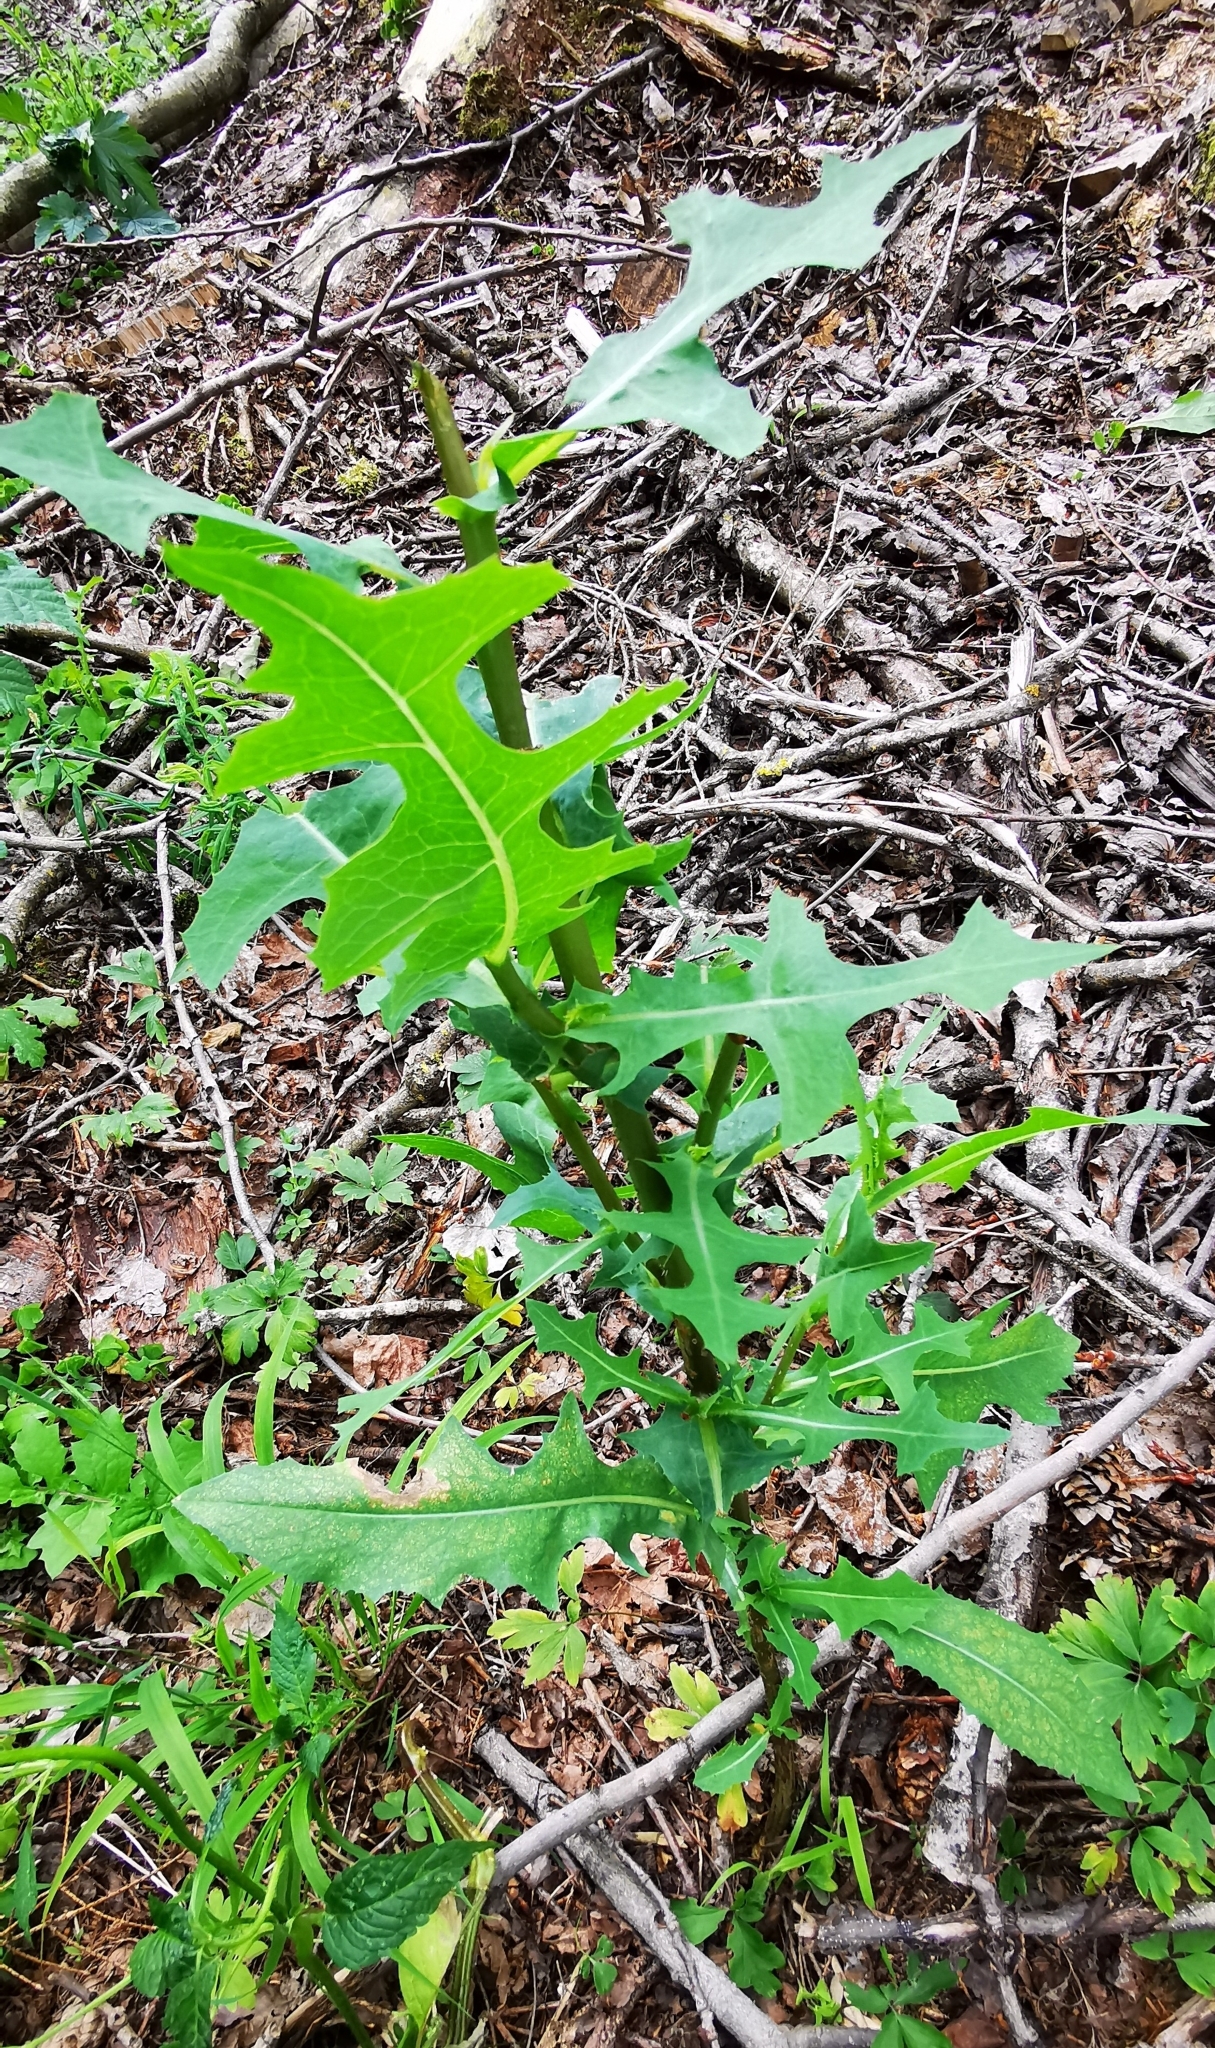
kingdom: Plantae
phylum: Tracheophyta
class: Magnoliopsida
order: Asterales
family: Asteraceae
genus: Lactuca
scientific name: Lactuca serriola
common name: Prickly lettuce
